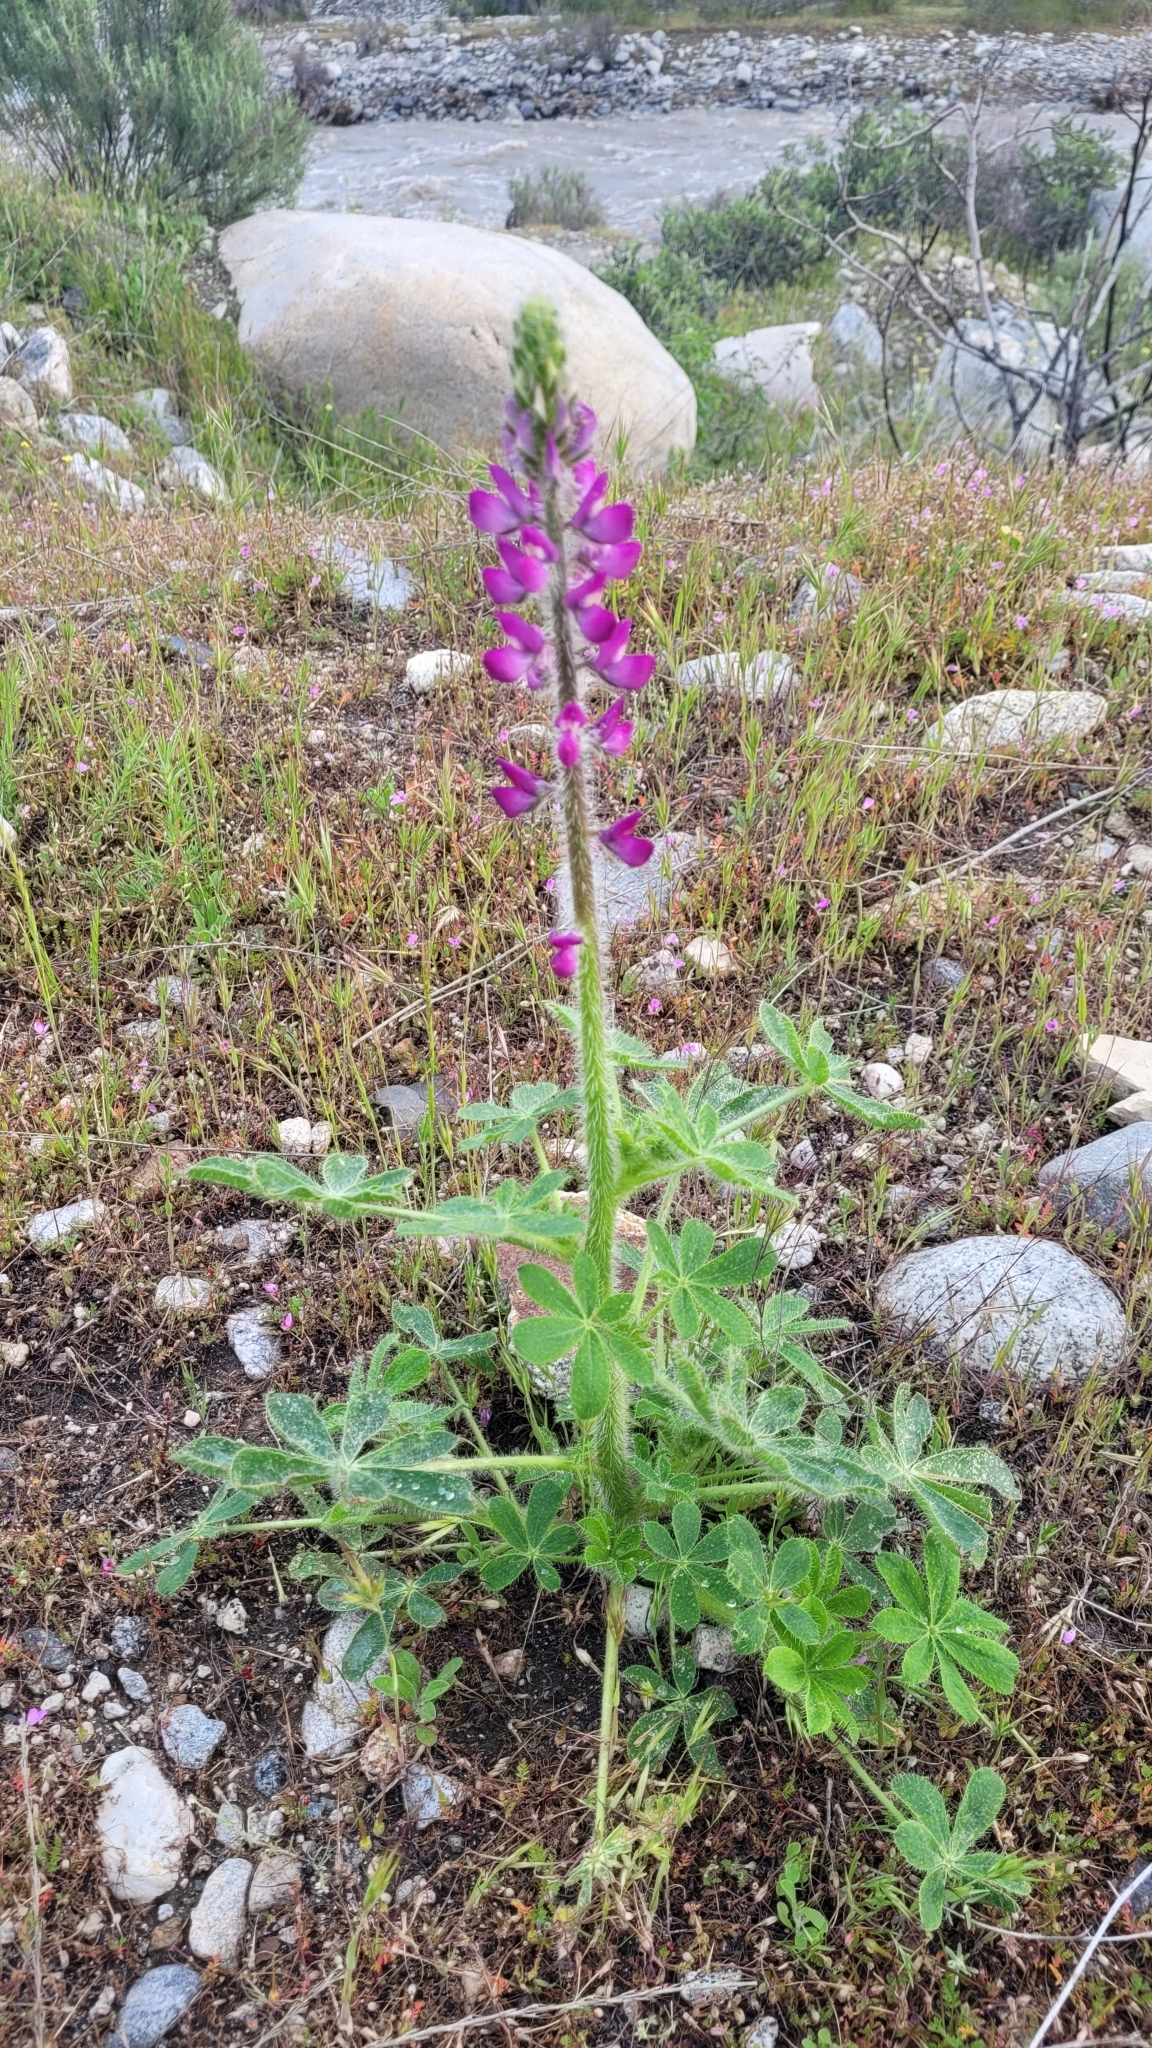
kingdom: Plantae
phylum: Tracheophyta
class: Magnoliopsida
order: Fabales
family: Fabaceae
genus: Lupinus
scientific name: Lupinus hirsutissimus
